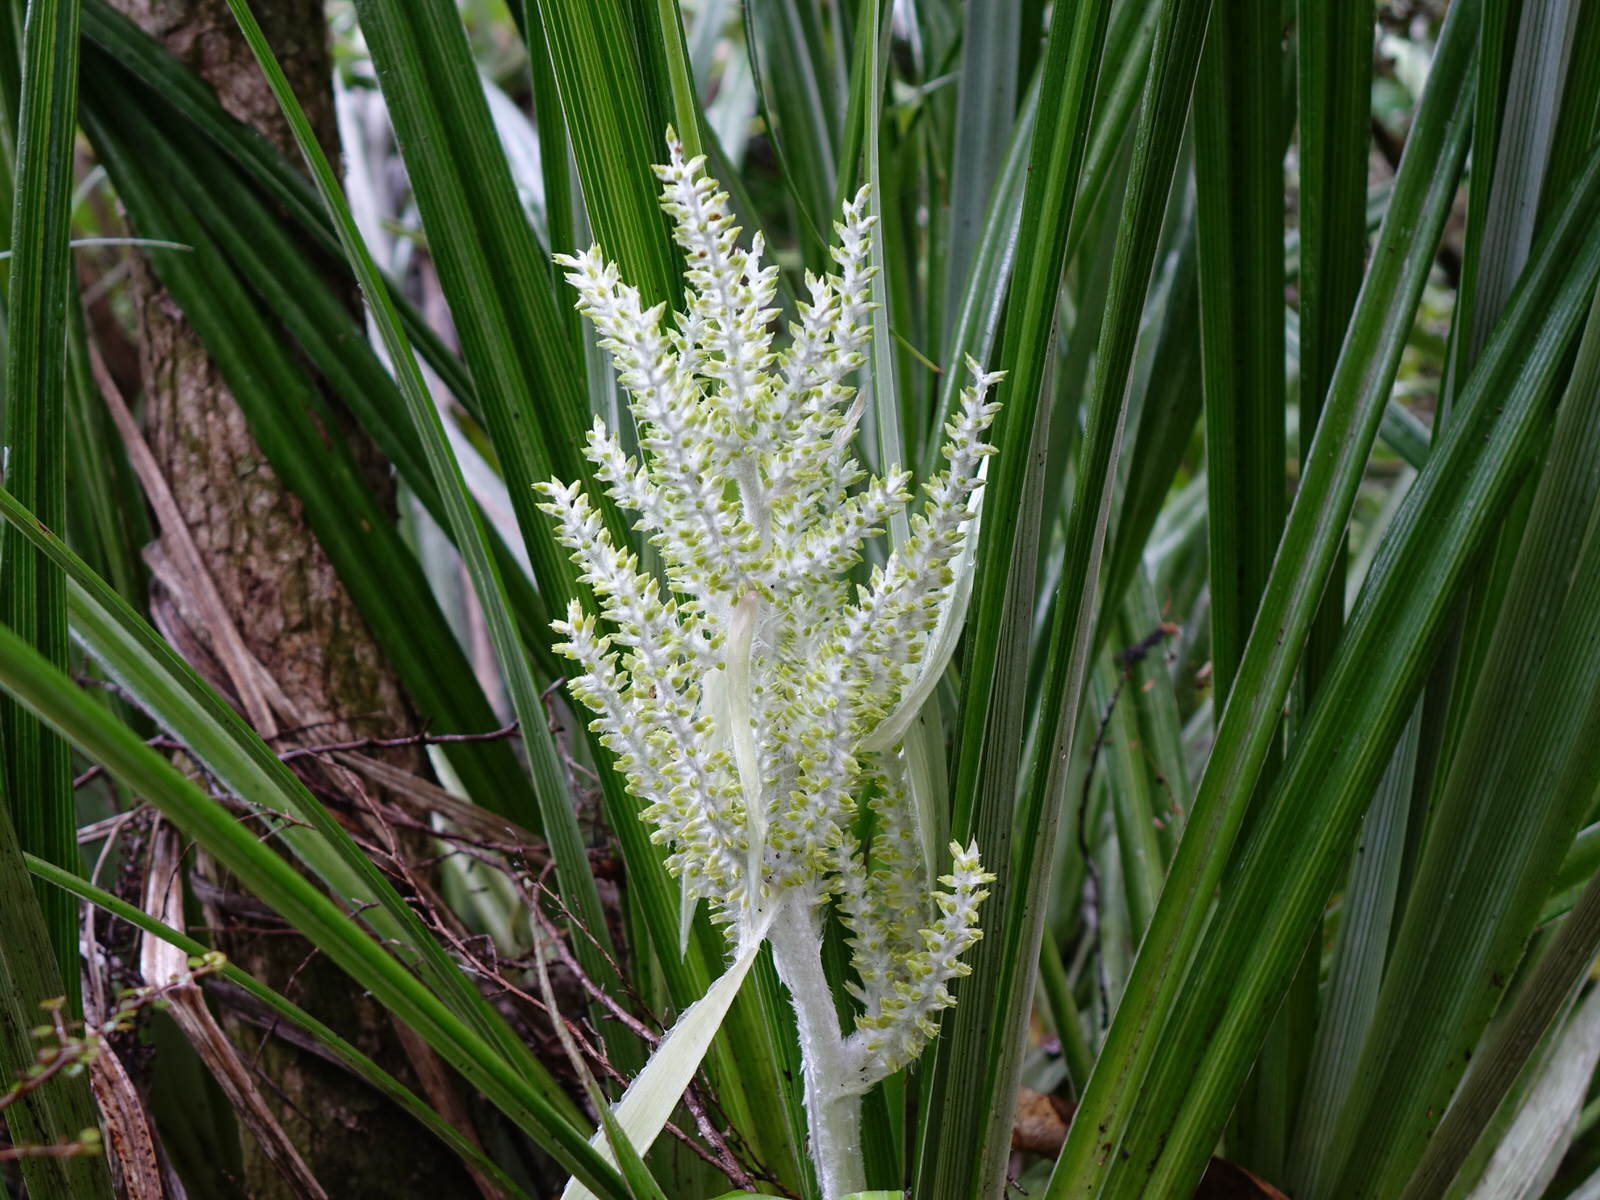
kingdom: Plantae
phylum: Tracheophyta
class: Liliopsida
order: Asparagales
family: Asteliaceae
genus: Astelia
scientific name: Astelia banksii
